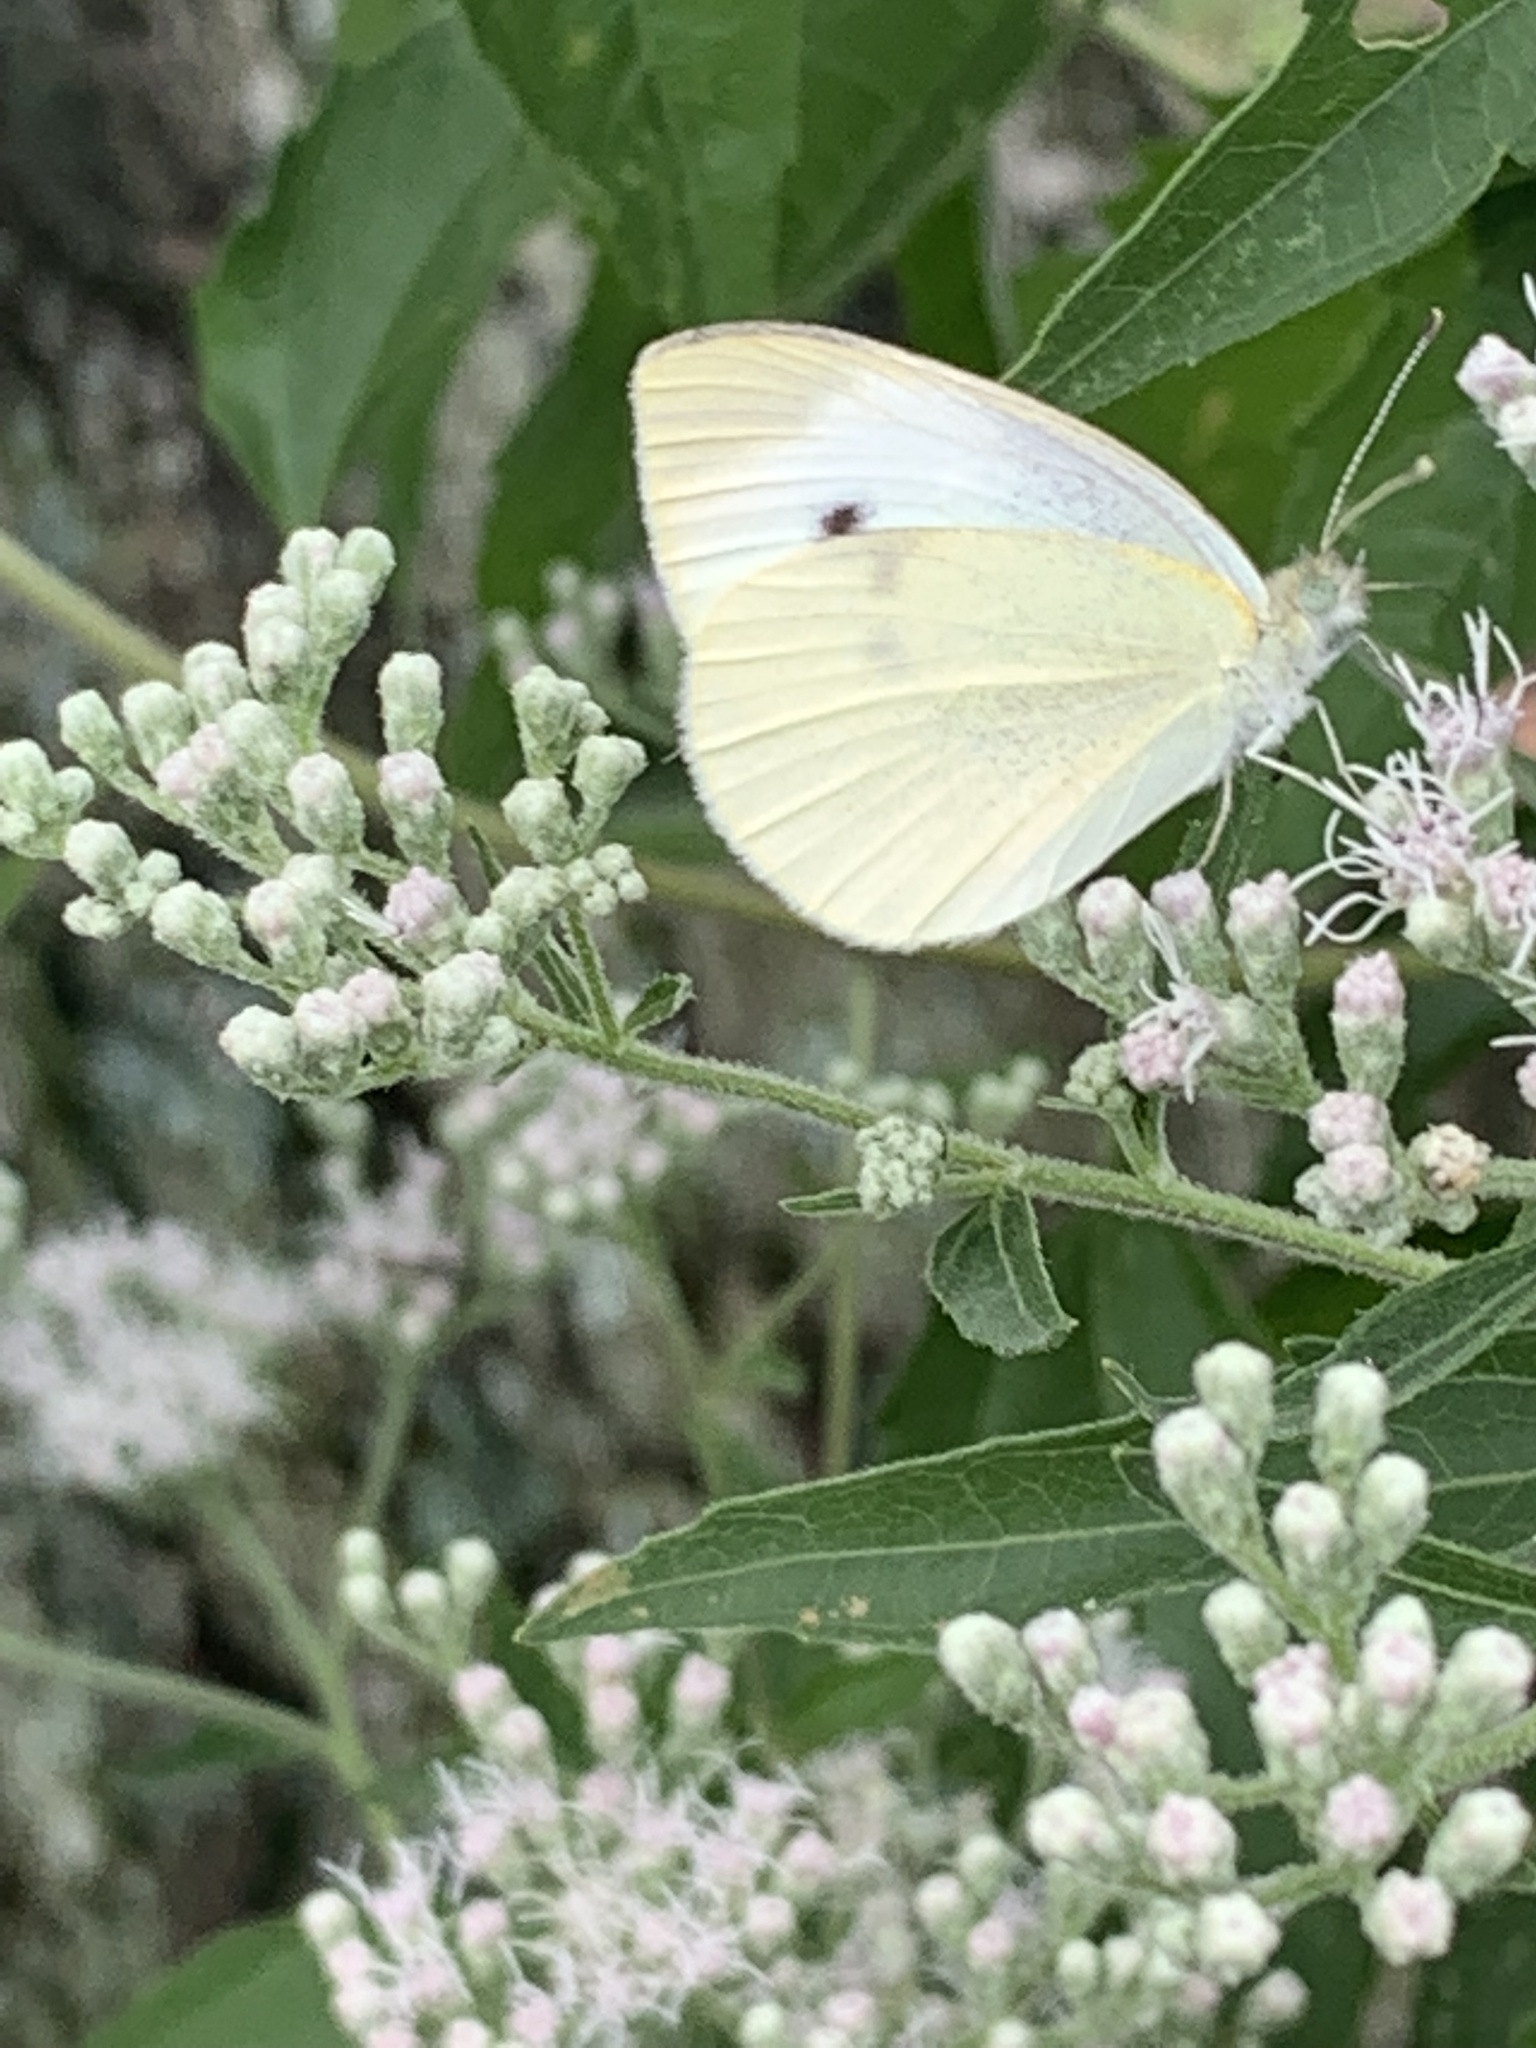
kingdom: Animalia
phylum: Arthropoda
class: Insecta
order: Lepidoptera
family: Pieridae
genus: Pieris
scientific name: Pieris rapae
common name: Small white
